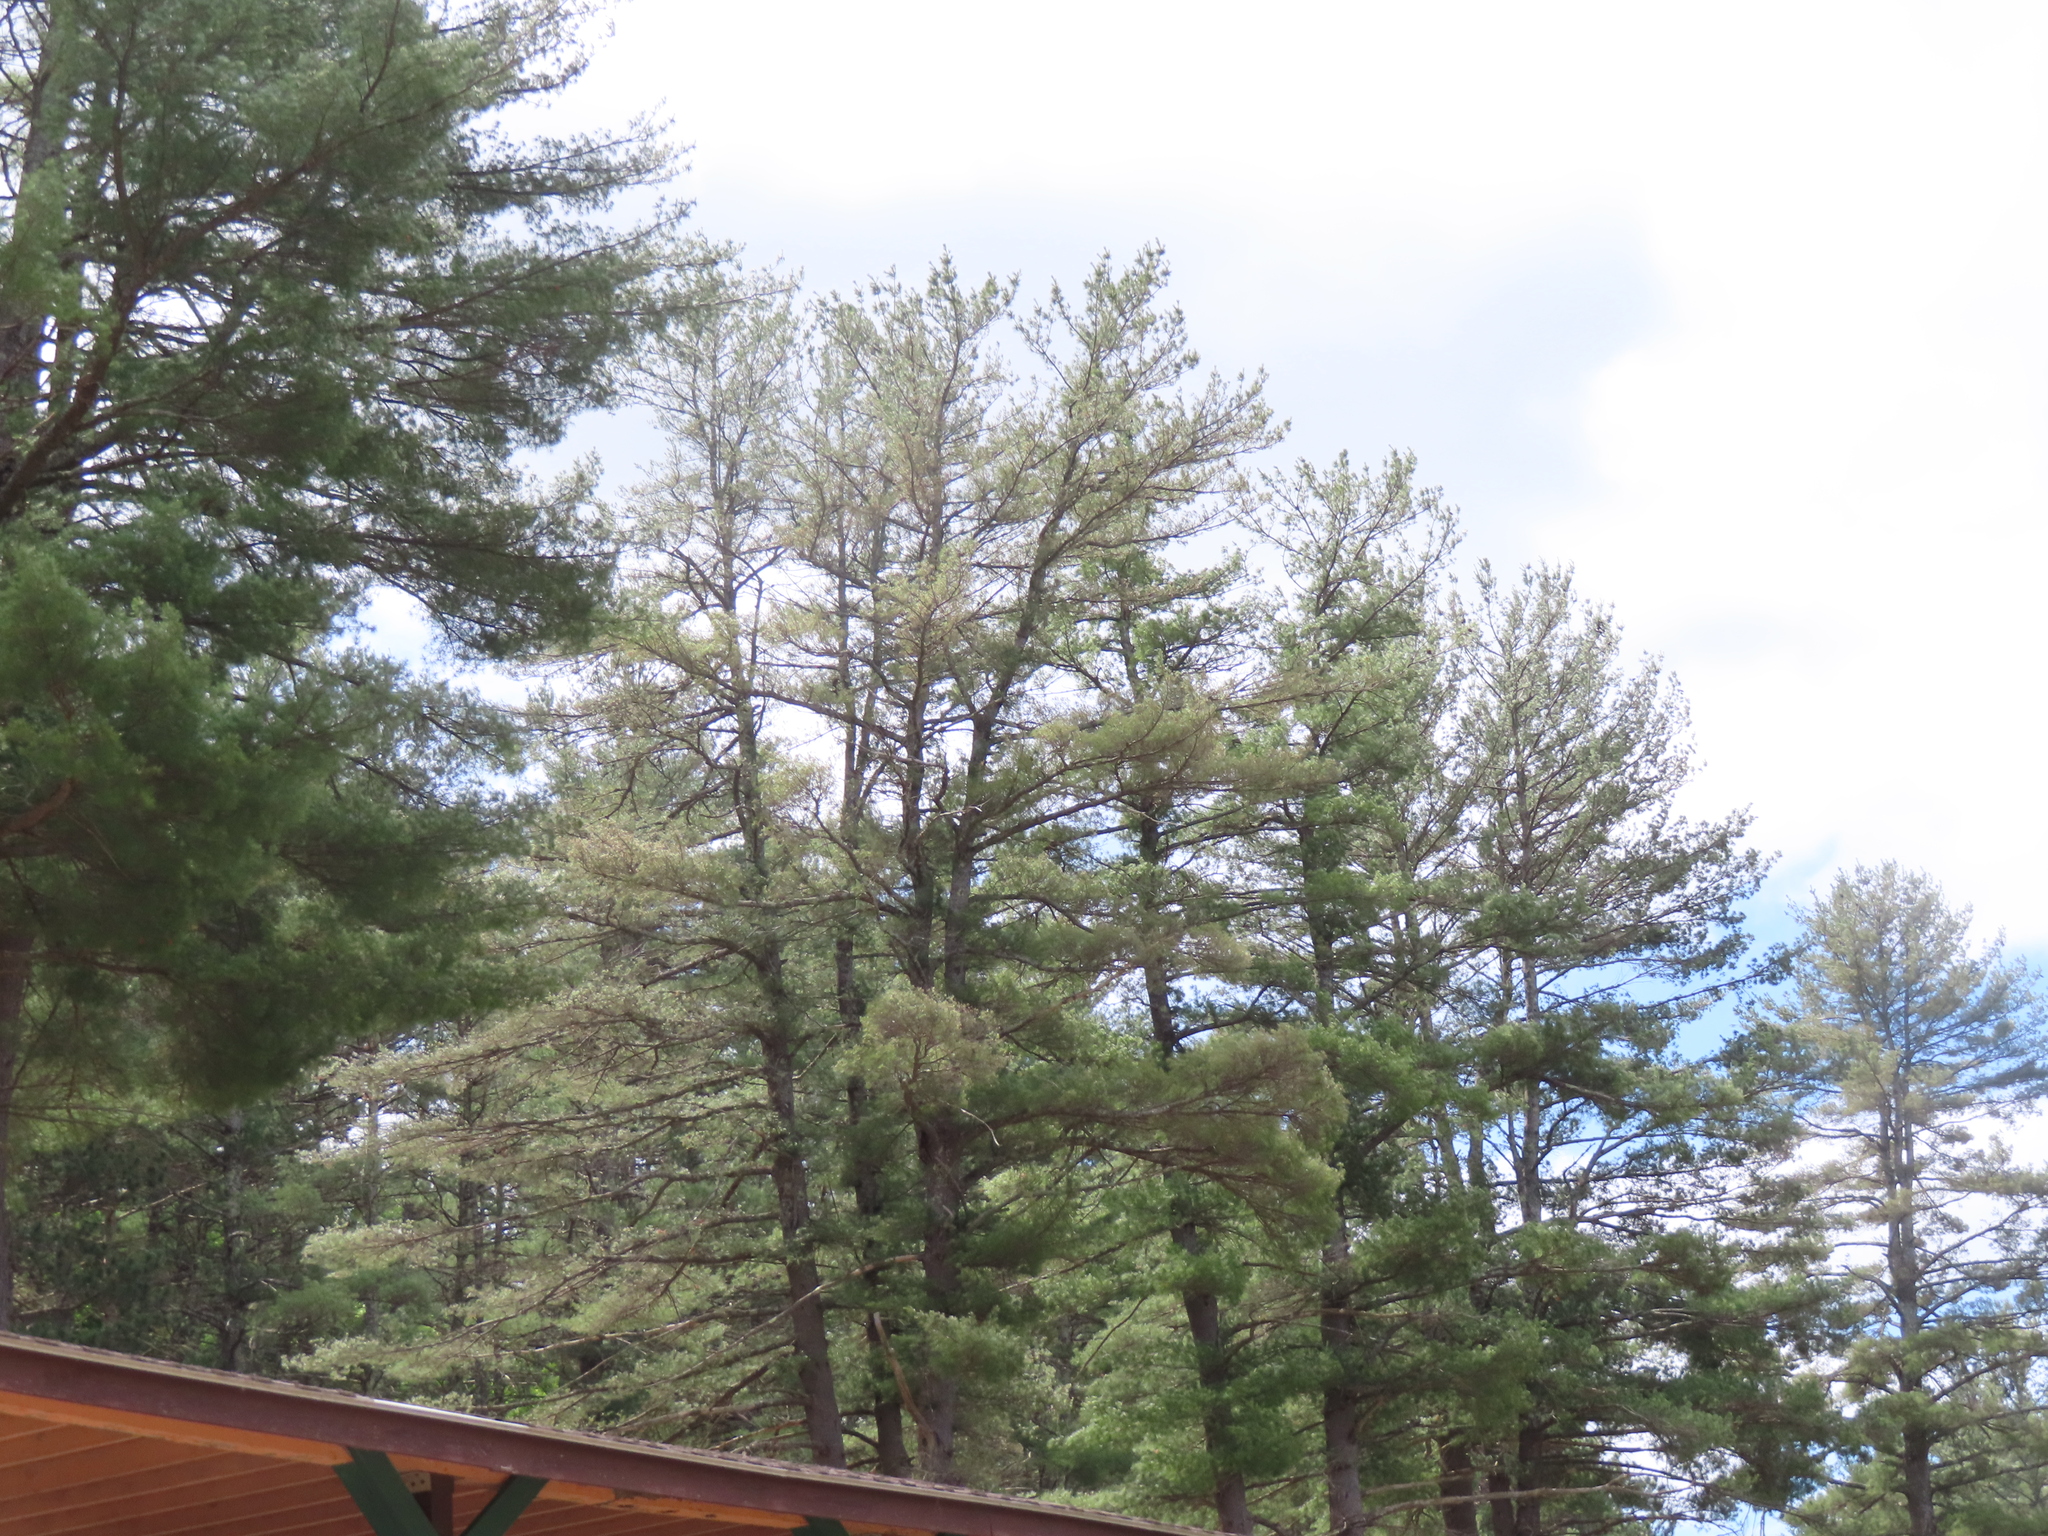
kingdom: Plantae
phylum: Tracheophyta
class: Pinopsida
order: Pinales
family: Pinaceae
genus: Pinus
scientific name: Pinus strobus
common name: Weymouth pine
